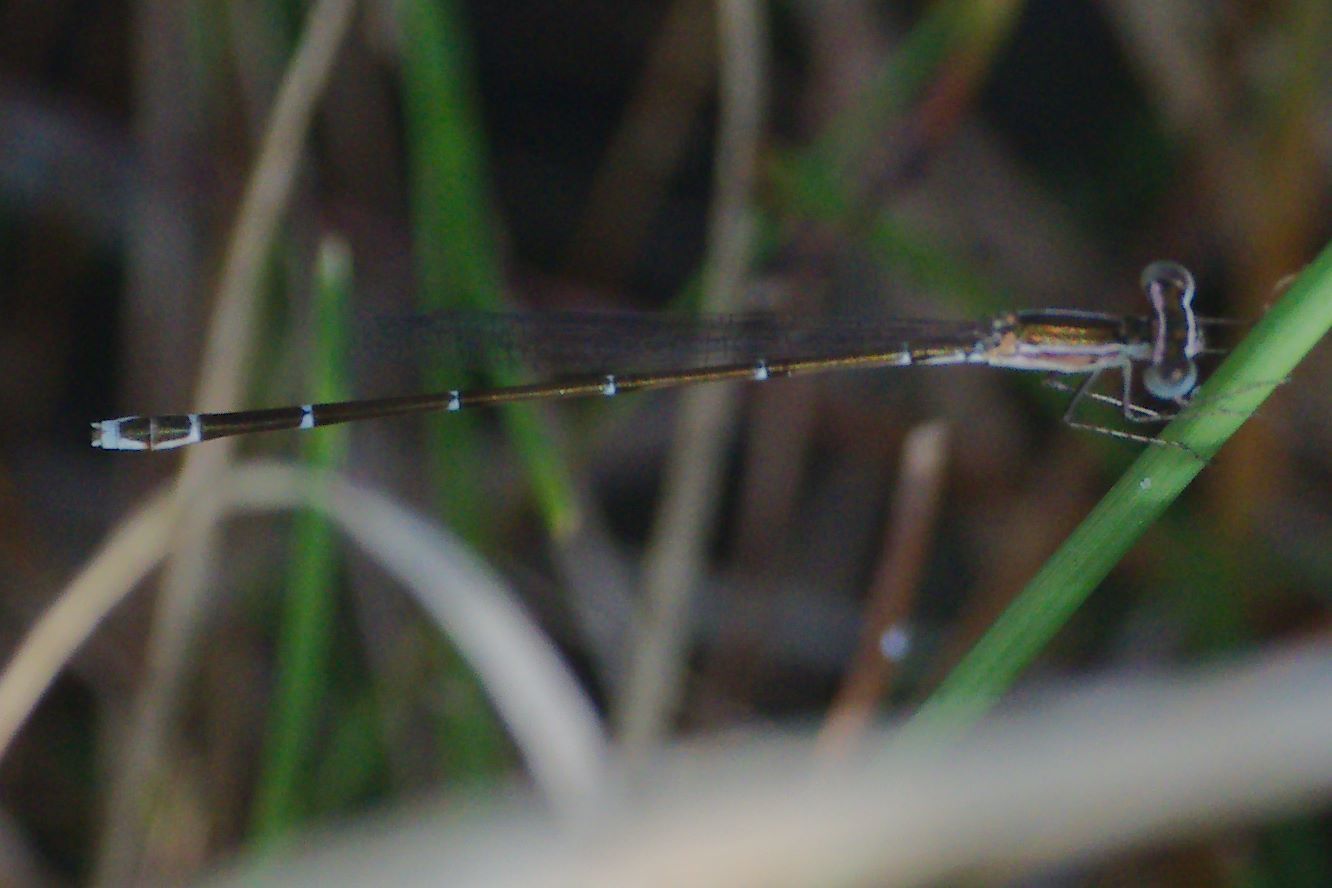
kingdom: Animalia
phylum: Arthropoda
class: Insecta
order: Odonata
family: Coenagrionidae
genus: Nehalennia
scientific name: Nehalennia pallidula
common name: Everglades sprite
